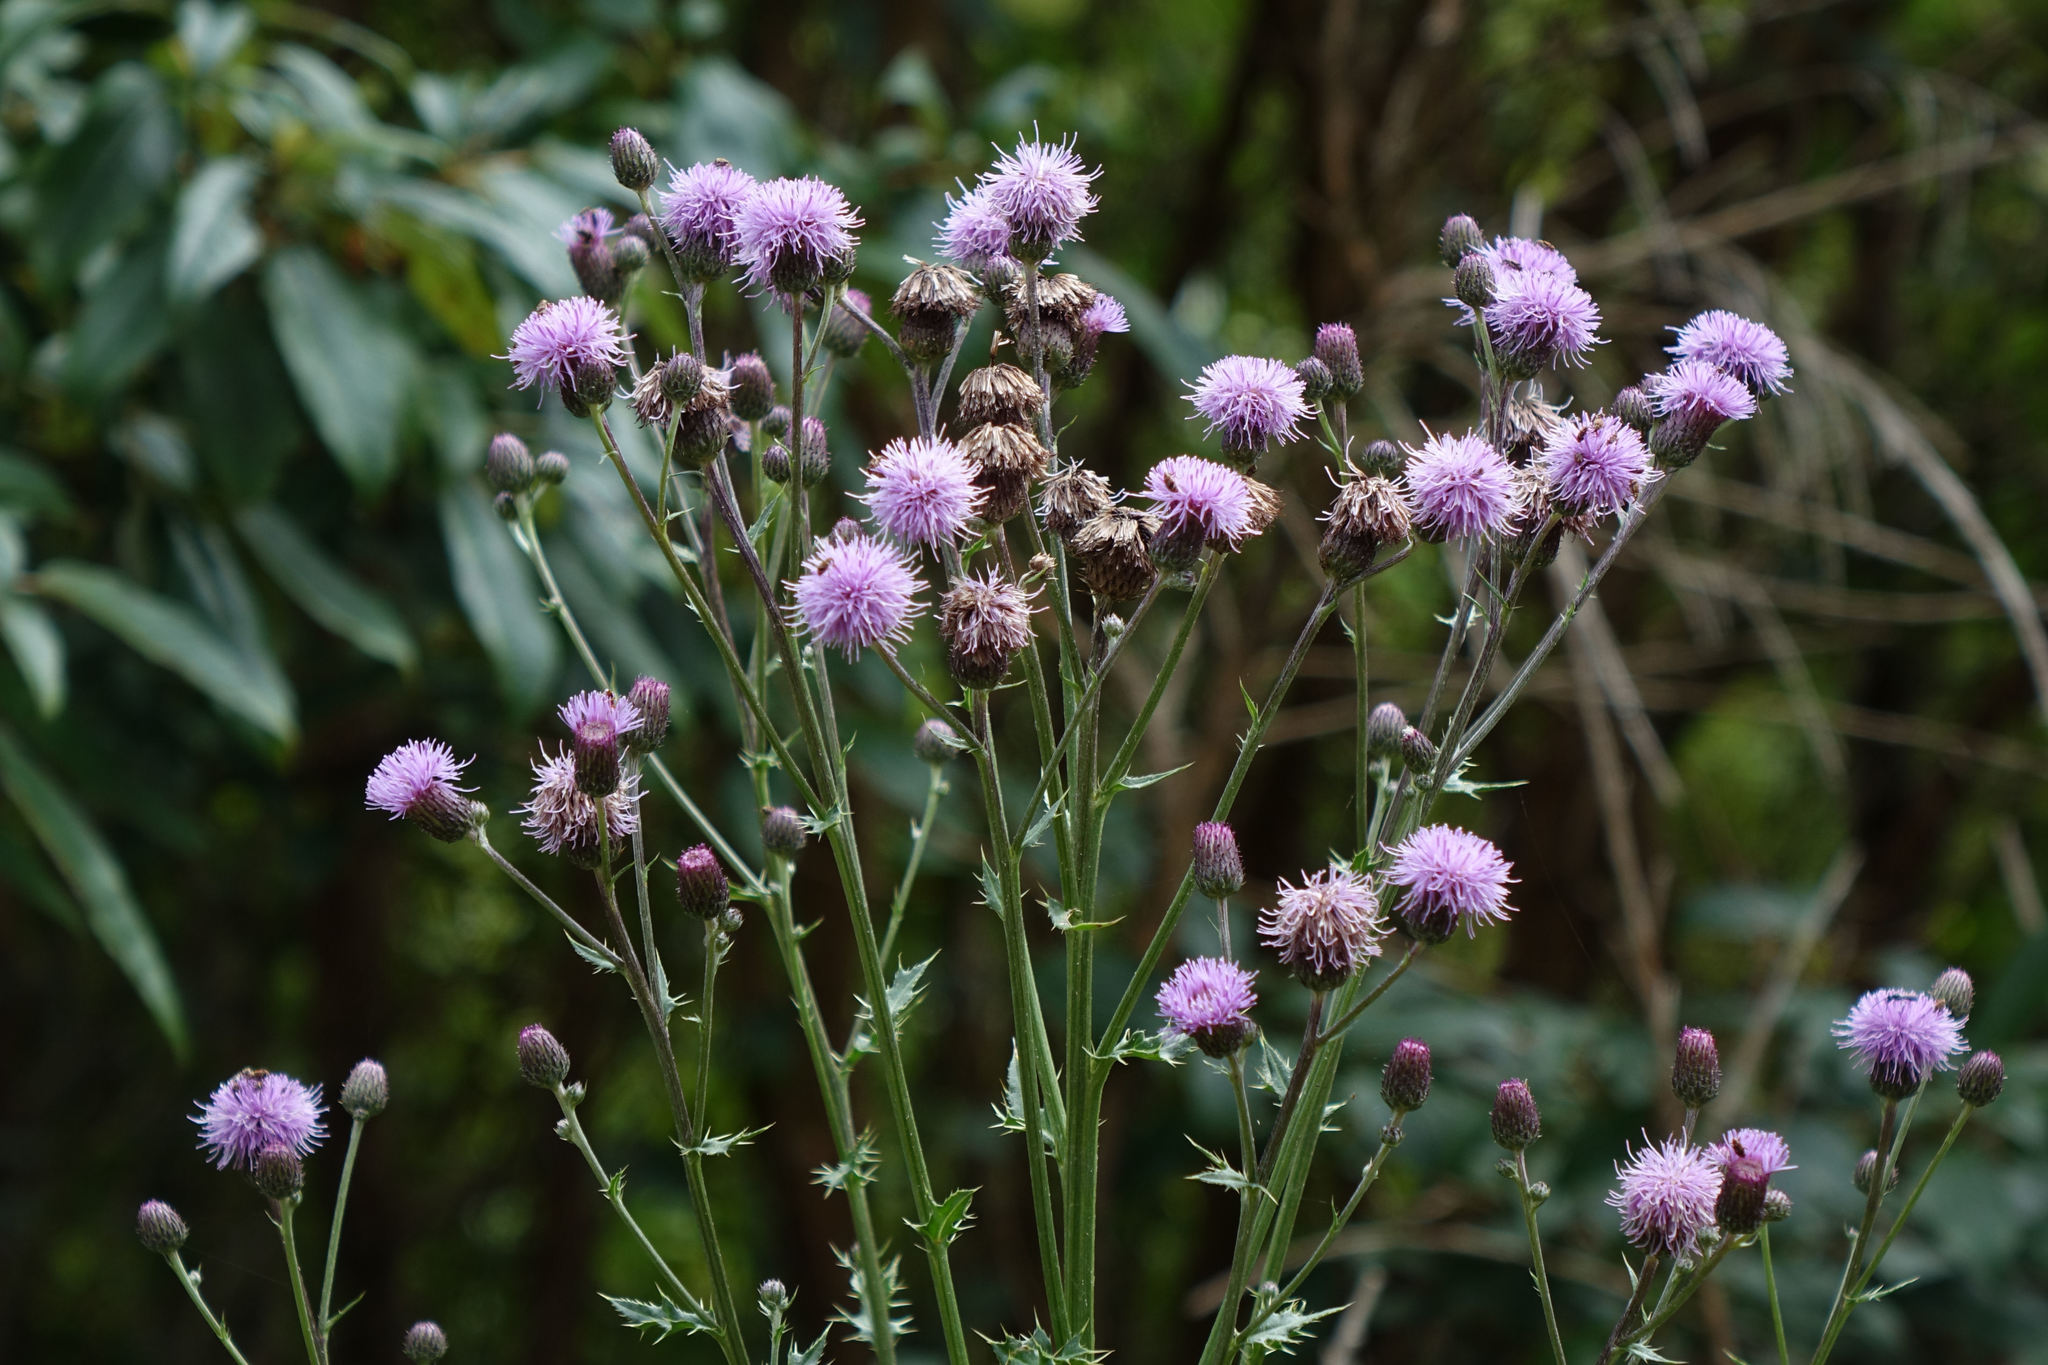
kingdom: Plantae
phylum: Tracheophyta
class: Magnoliopsida
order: Asterales
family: Asteraceae
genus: Cirsium
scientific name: Cirsium arvense
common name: Creeping thistle
